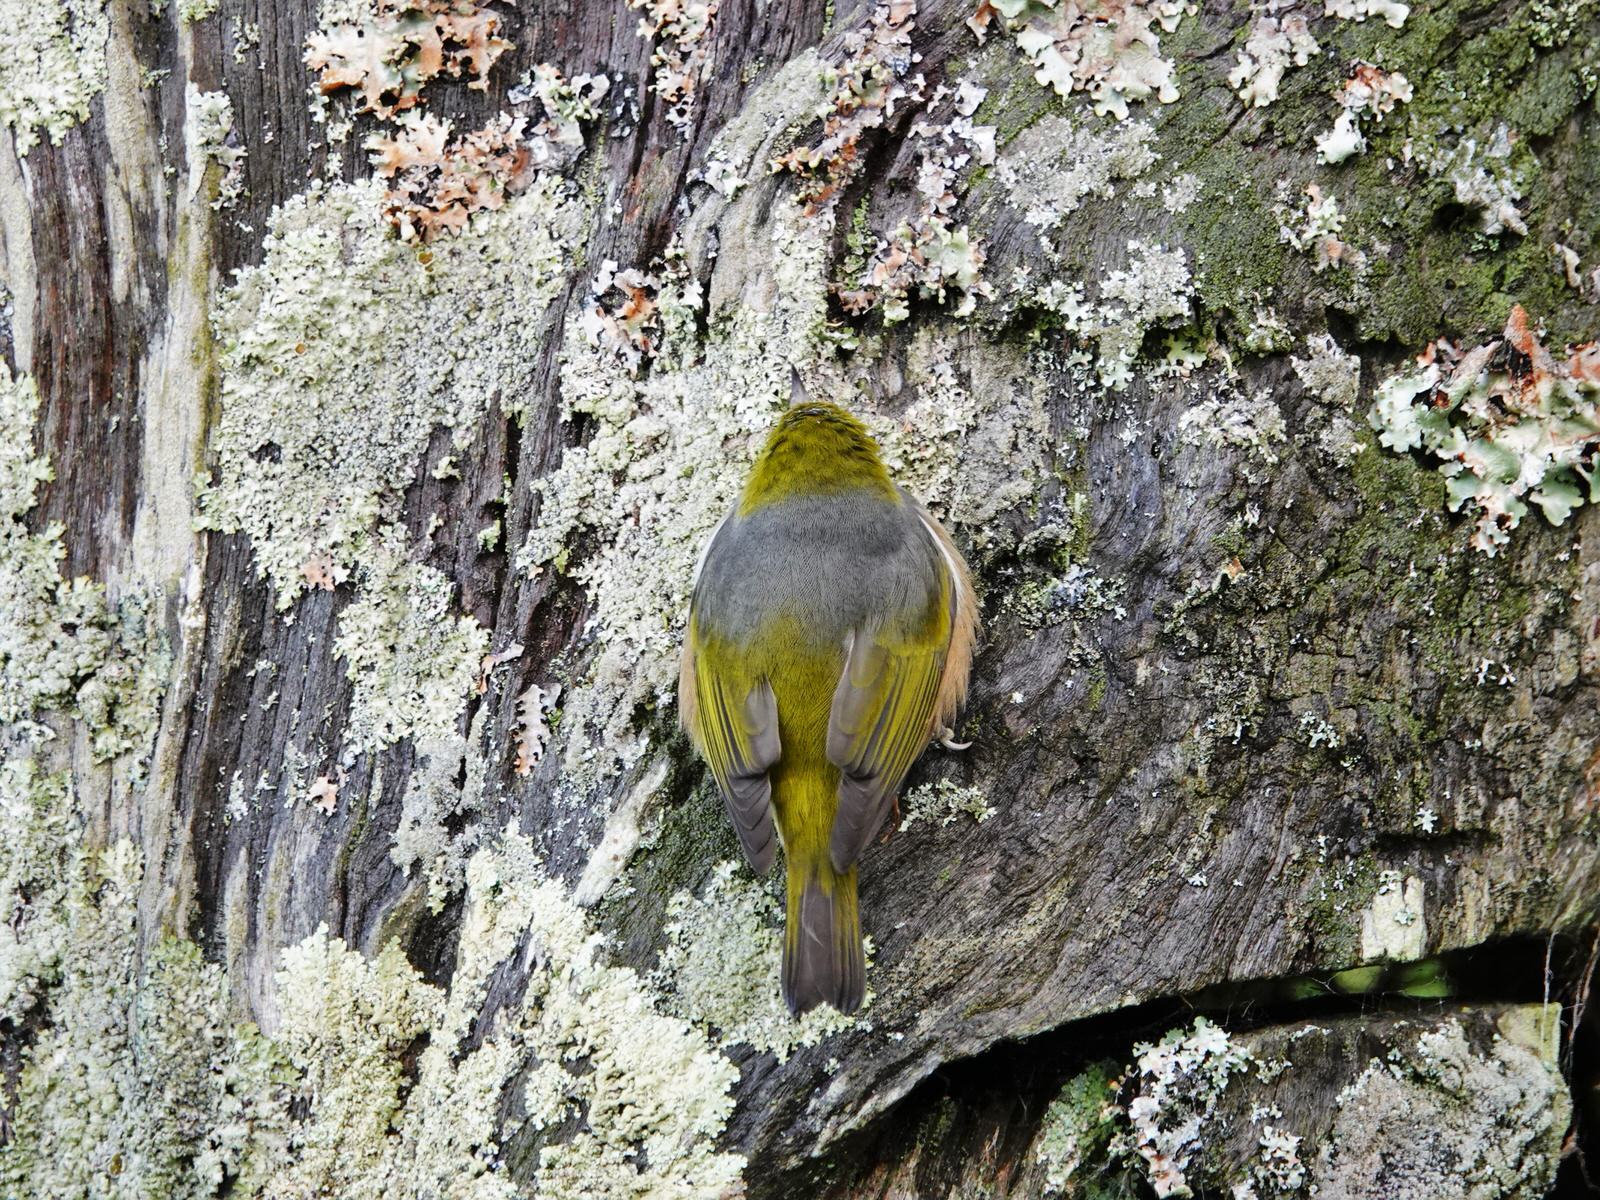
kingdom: Animalia
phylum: Chordata
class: Aves
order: Passeriformes
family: Zosteropidae
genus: Zosterops
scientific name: Zosterops lateralis
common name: Silvereye
